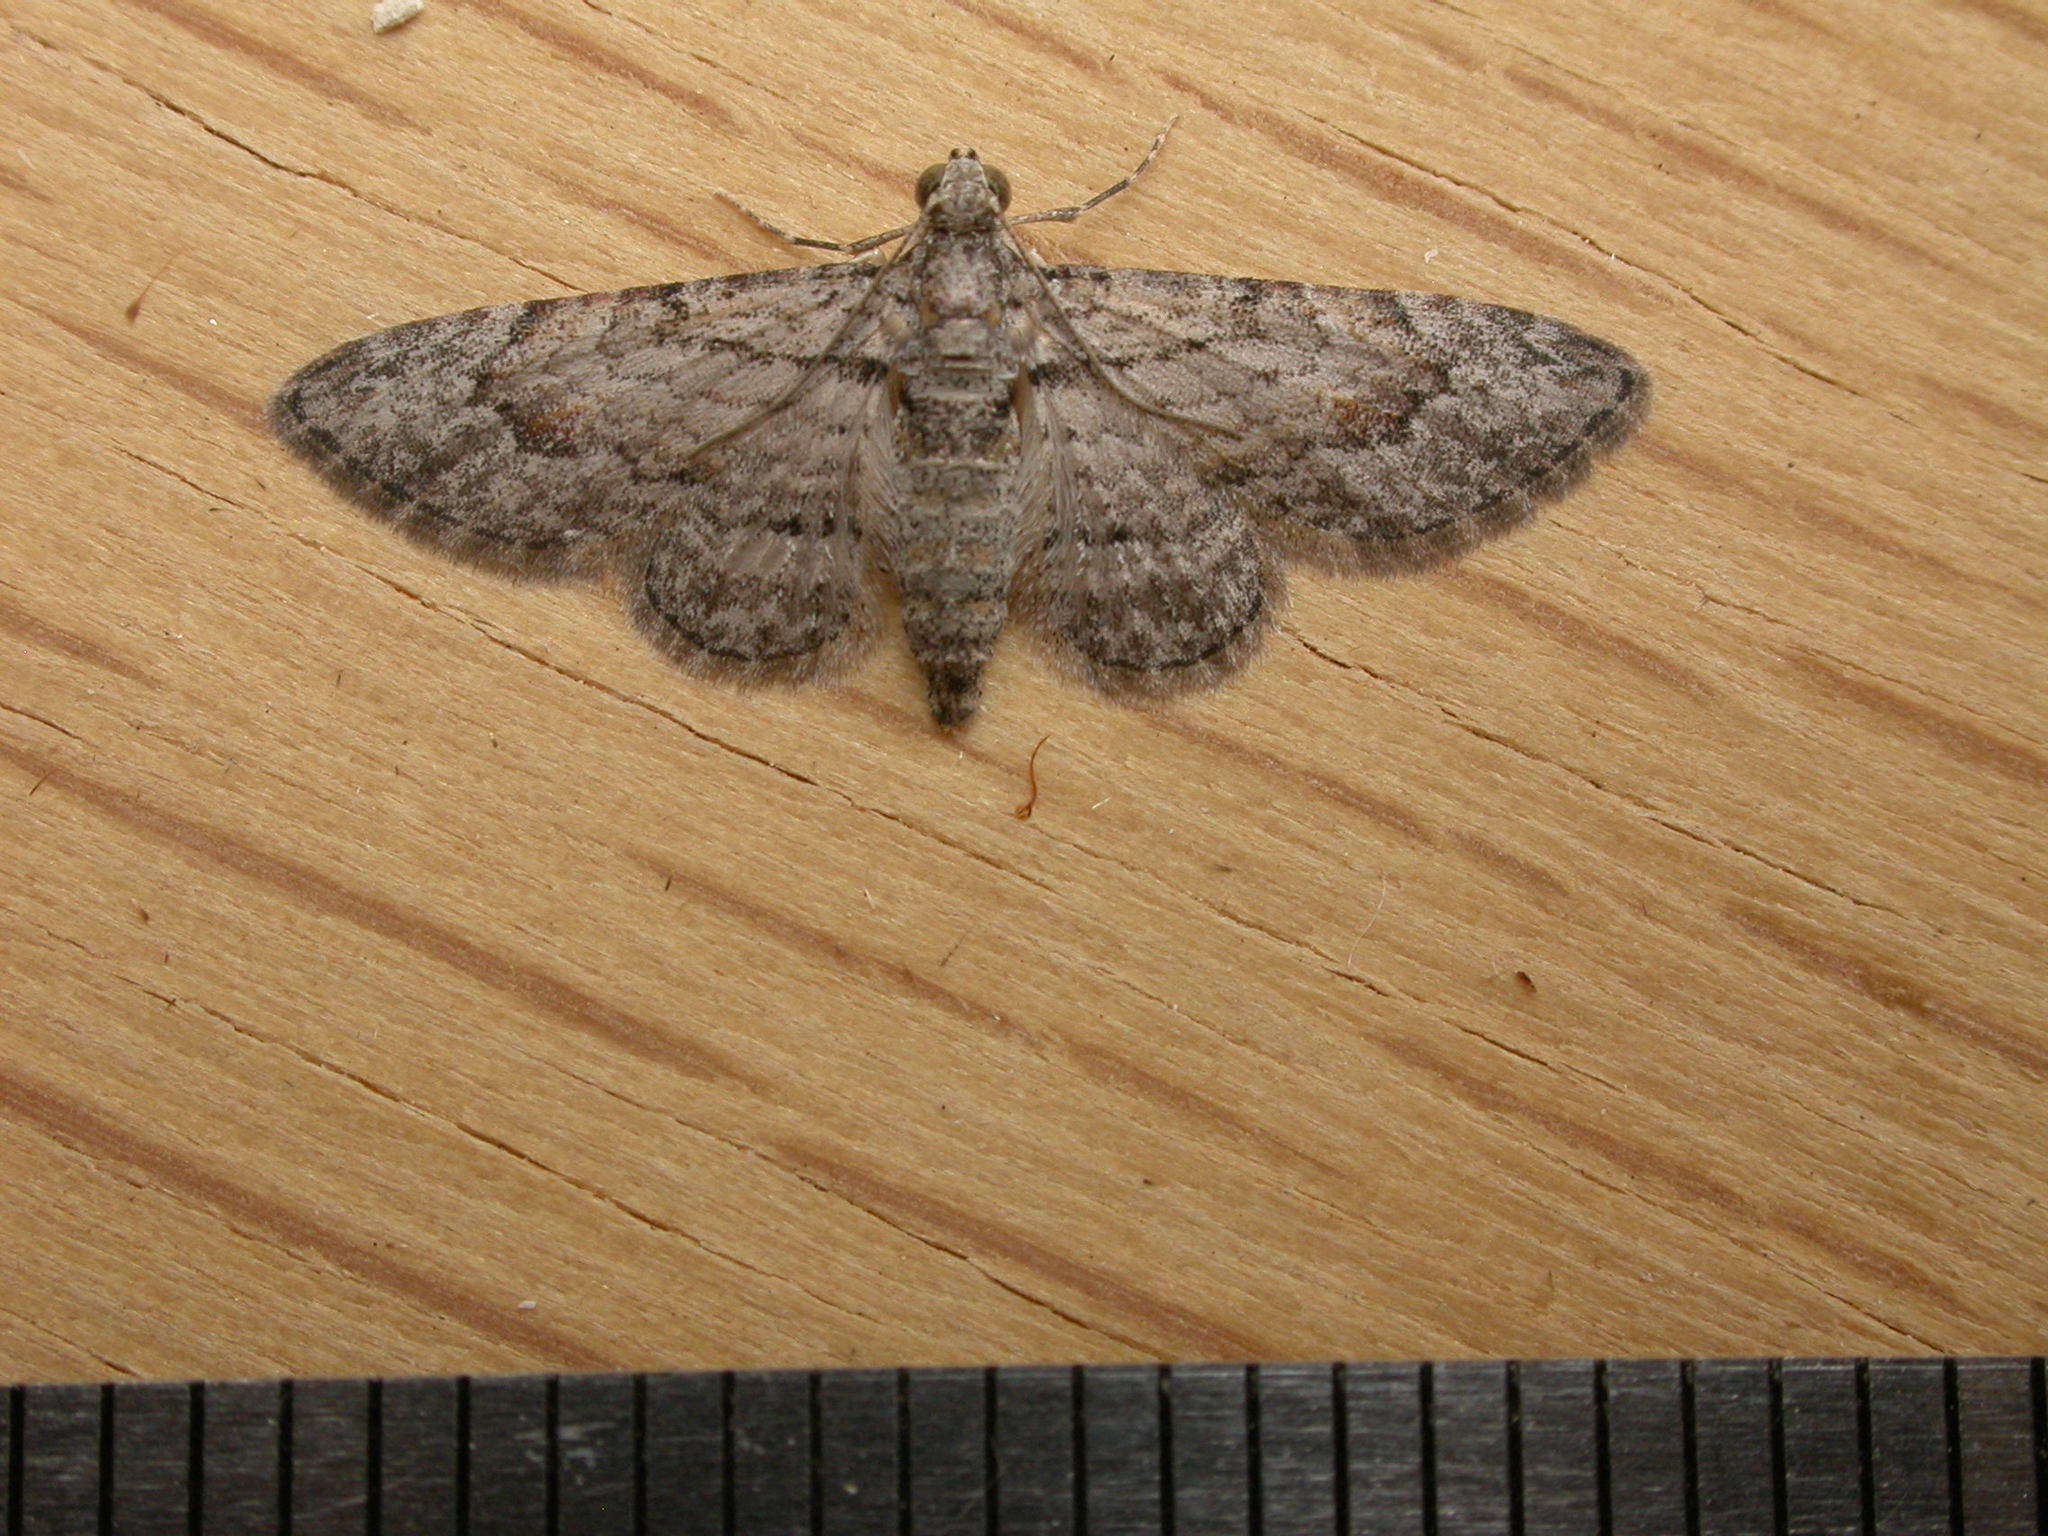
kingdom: Animalia
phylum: Arthropoda
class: Insecta
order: Lepidoptera
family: Geometridae
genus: Chloroclystis
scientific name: Chloroclystis insigillata
